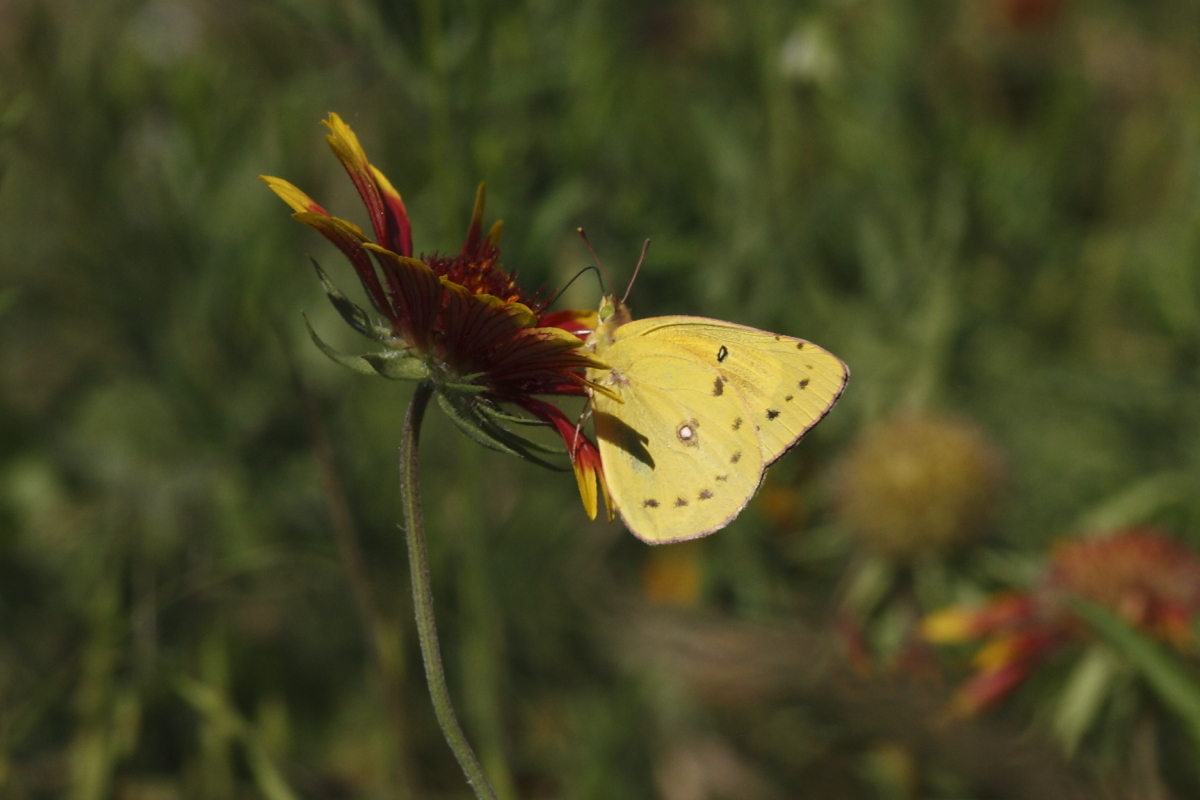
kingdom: Animalia
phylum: Arthropoda
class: Insecta
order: Lepidoptera
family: Pieridae
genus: Colias
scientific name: Colias eurytheme
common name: Alfalfa butterfly
